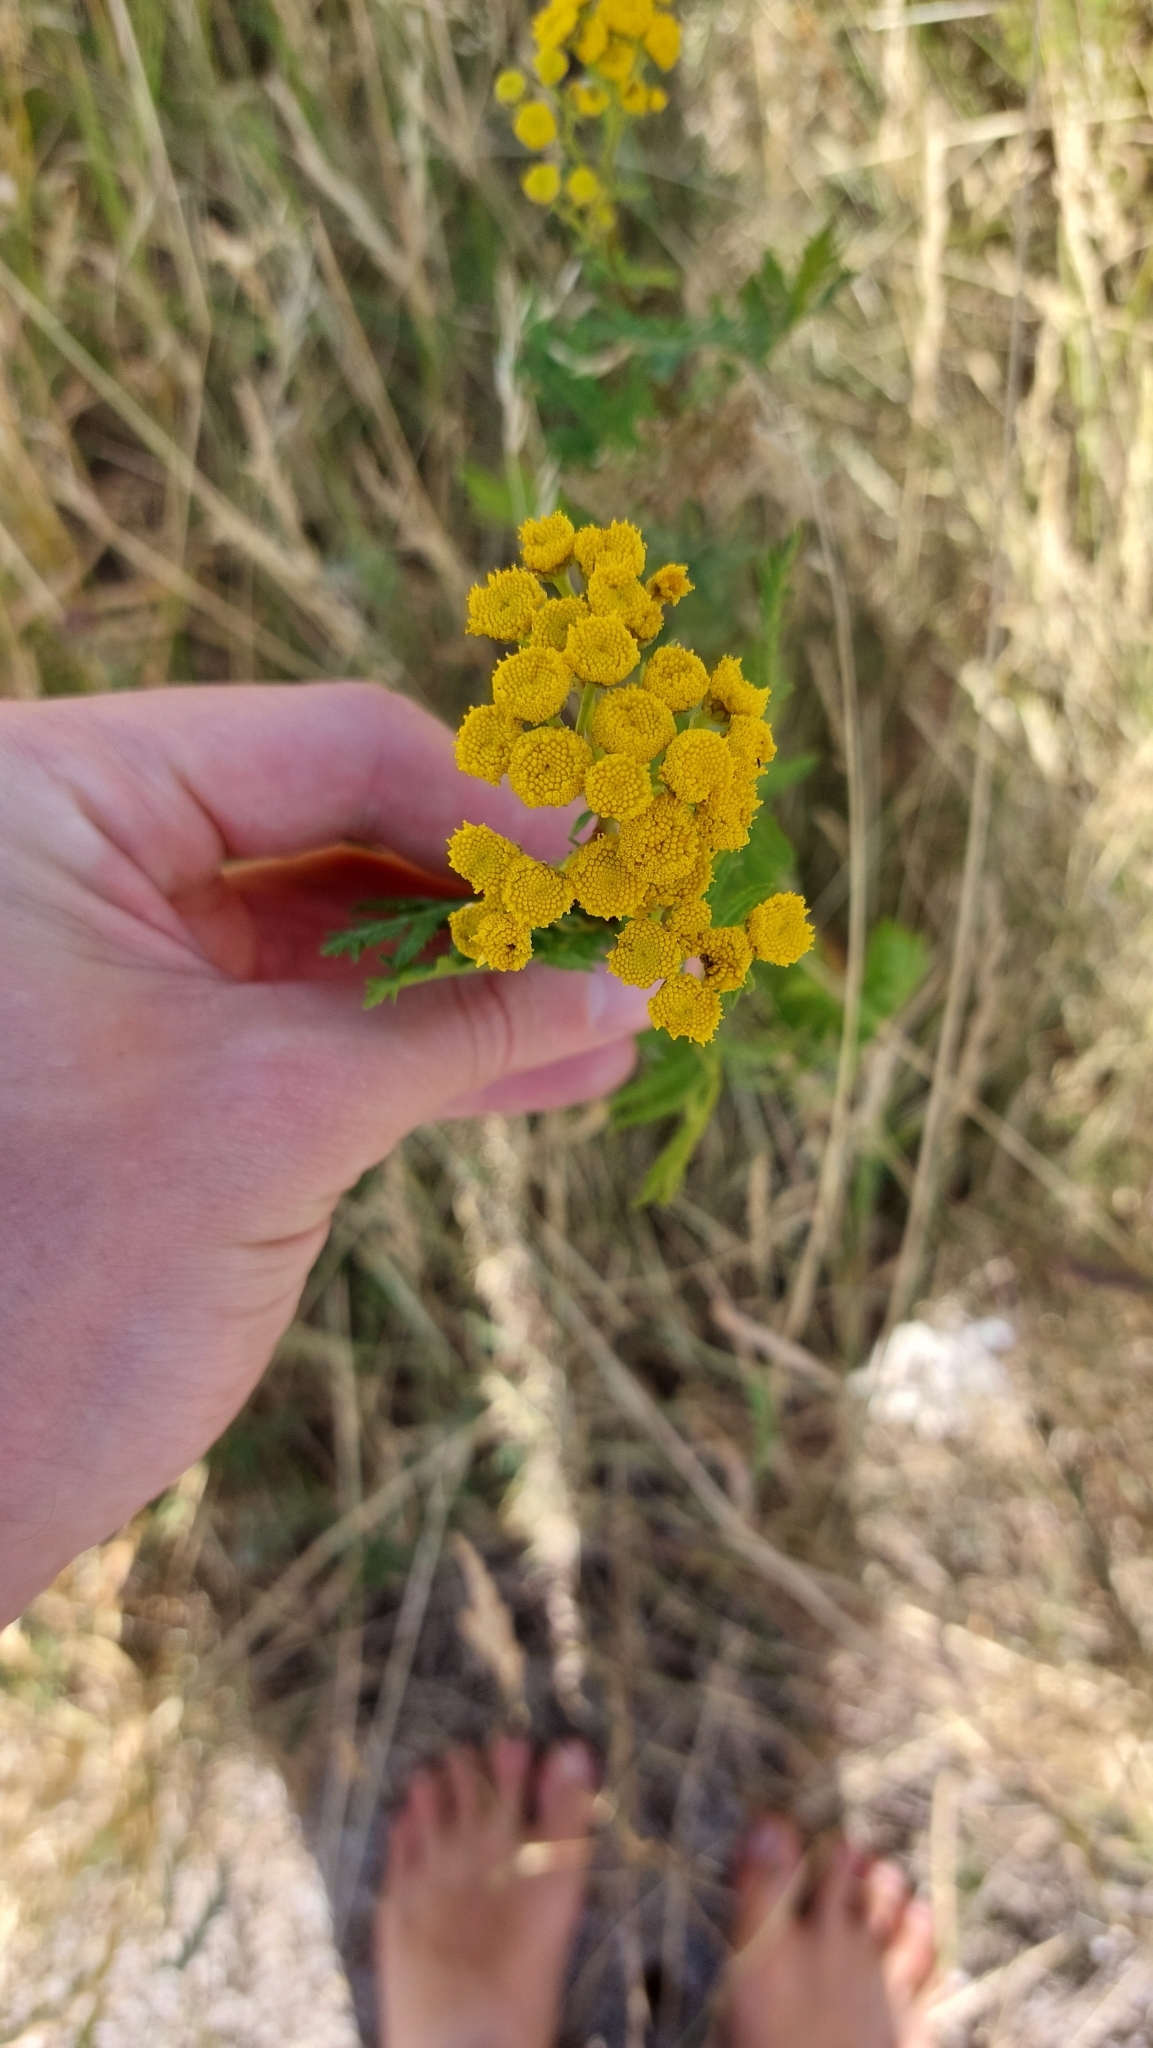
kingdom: Plantae
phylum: Tracheophyta
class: Magnoliopsida
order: Asterales
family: Asteraceae
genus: Tanacetum
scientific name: Tanacetum vulgare
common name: Common tansy
